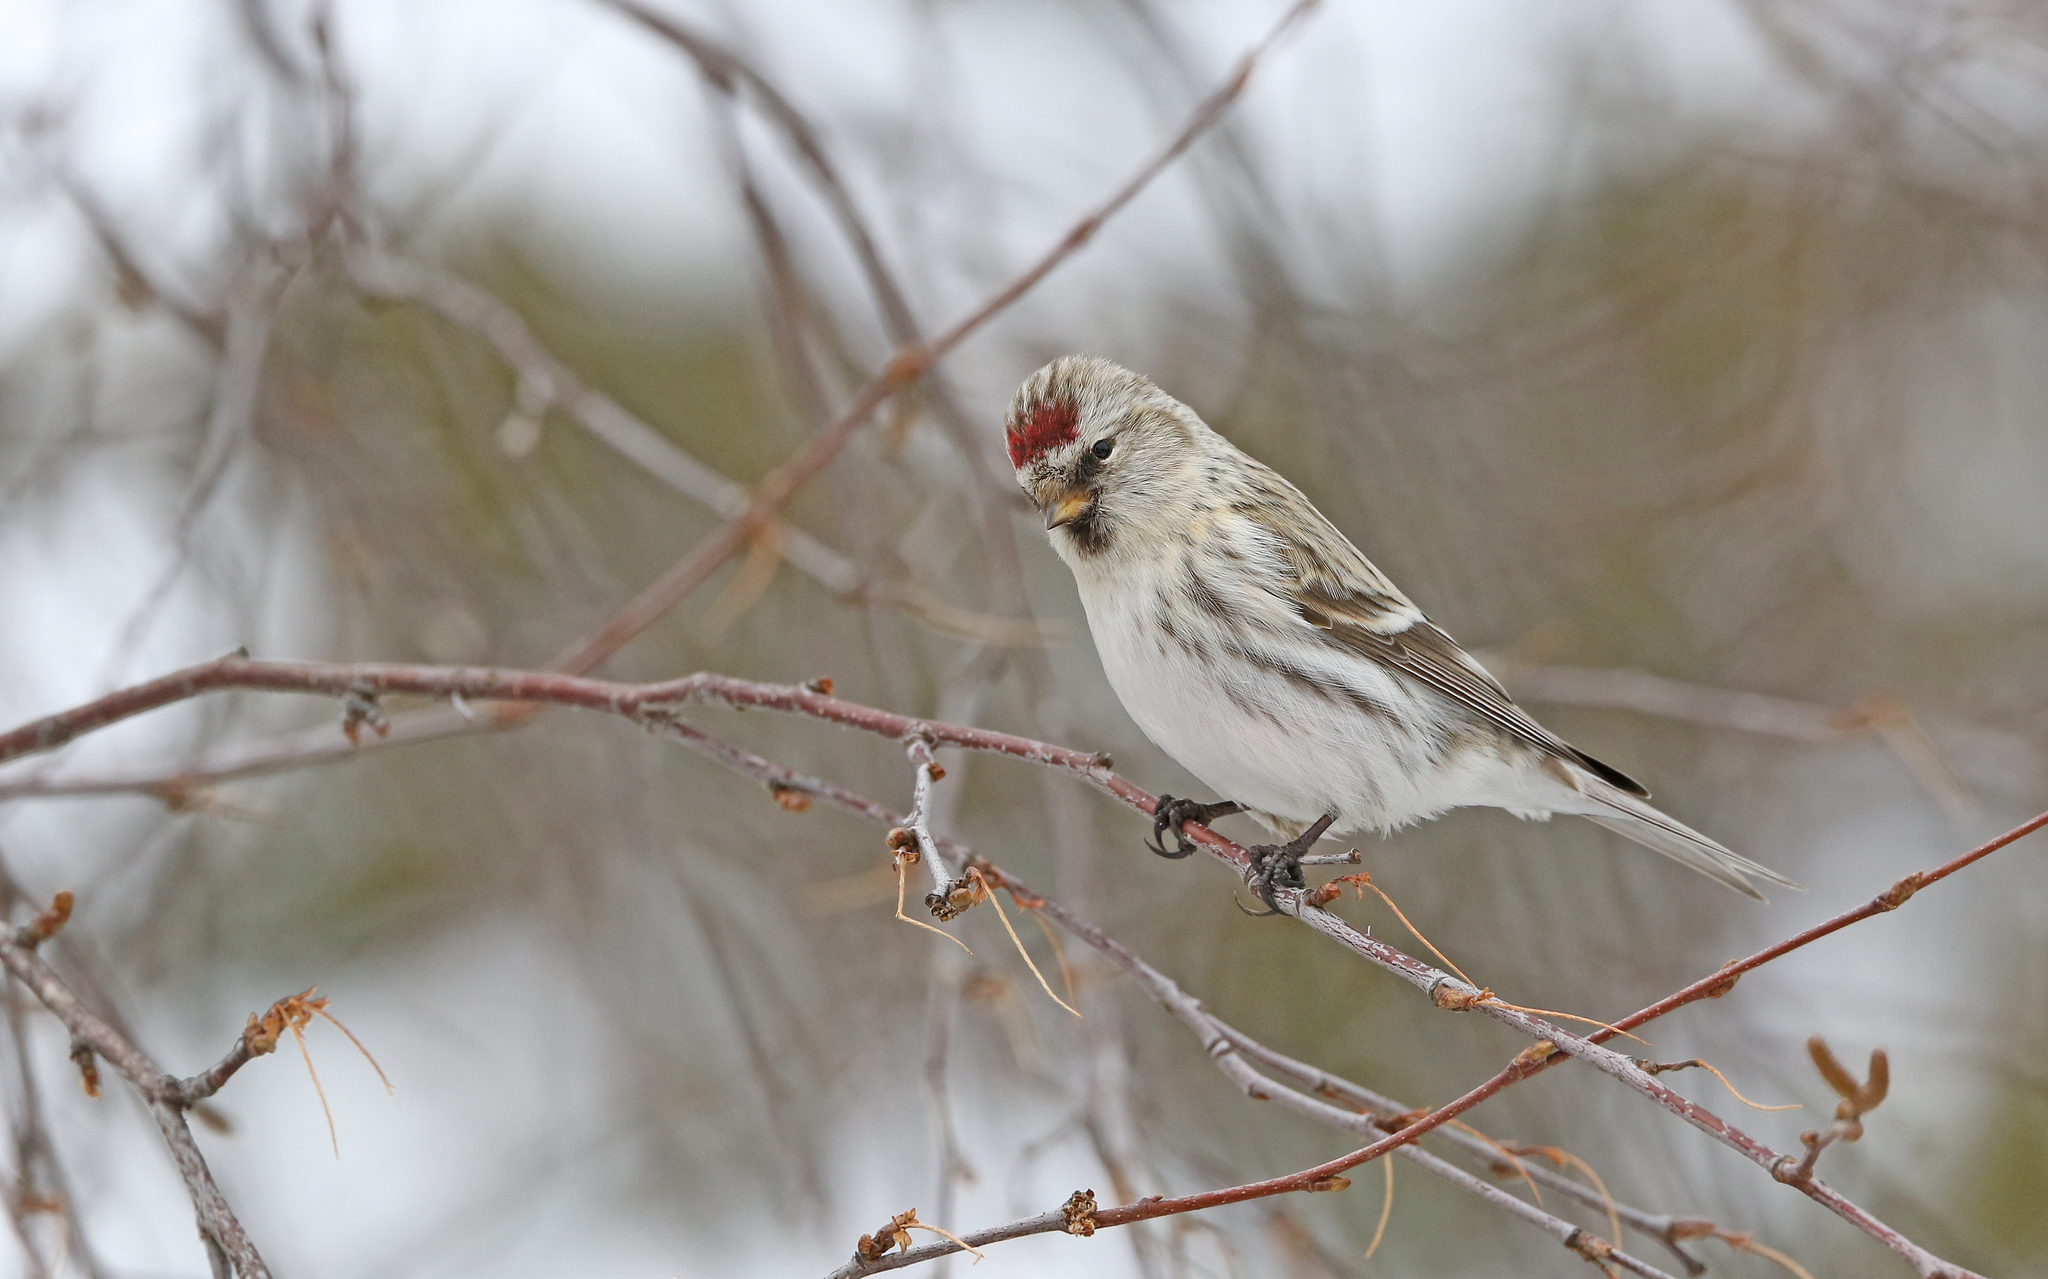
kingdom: Animalia
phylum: Chordata
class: Aves
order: Passeriformes
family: Fringillidae
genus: Acanthis
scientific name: Acanthis flammea
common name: Common redpoll
